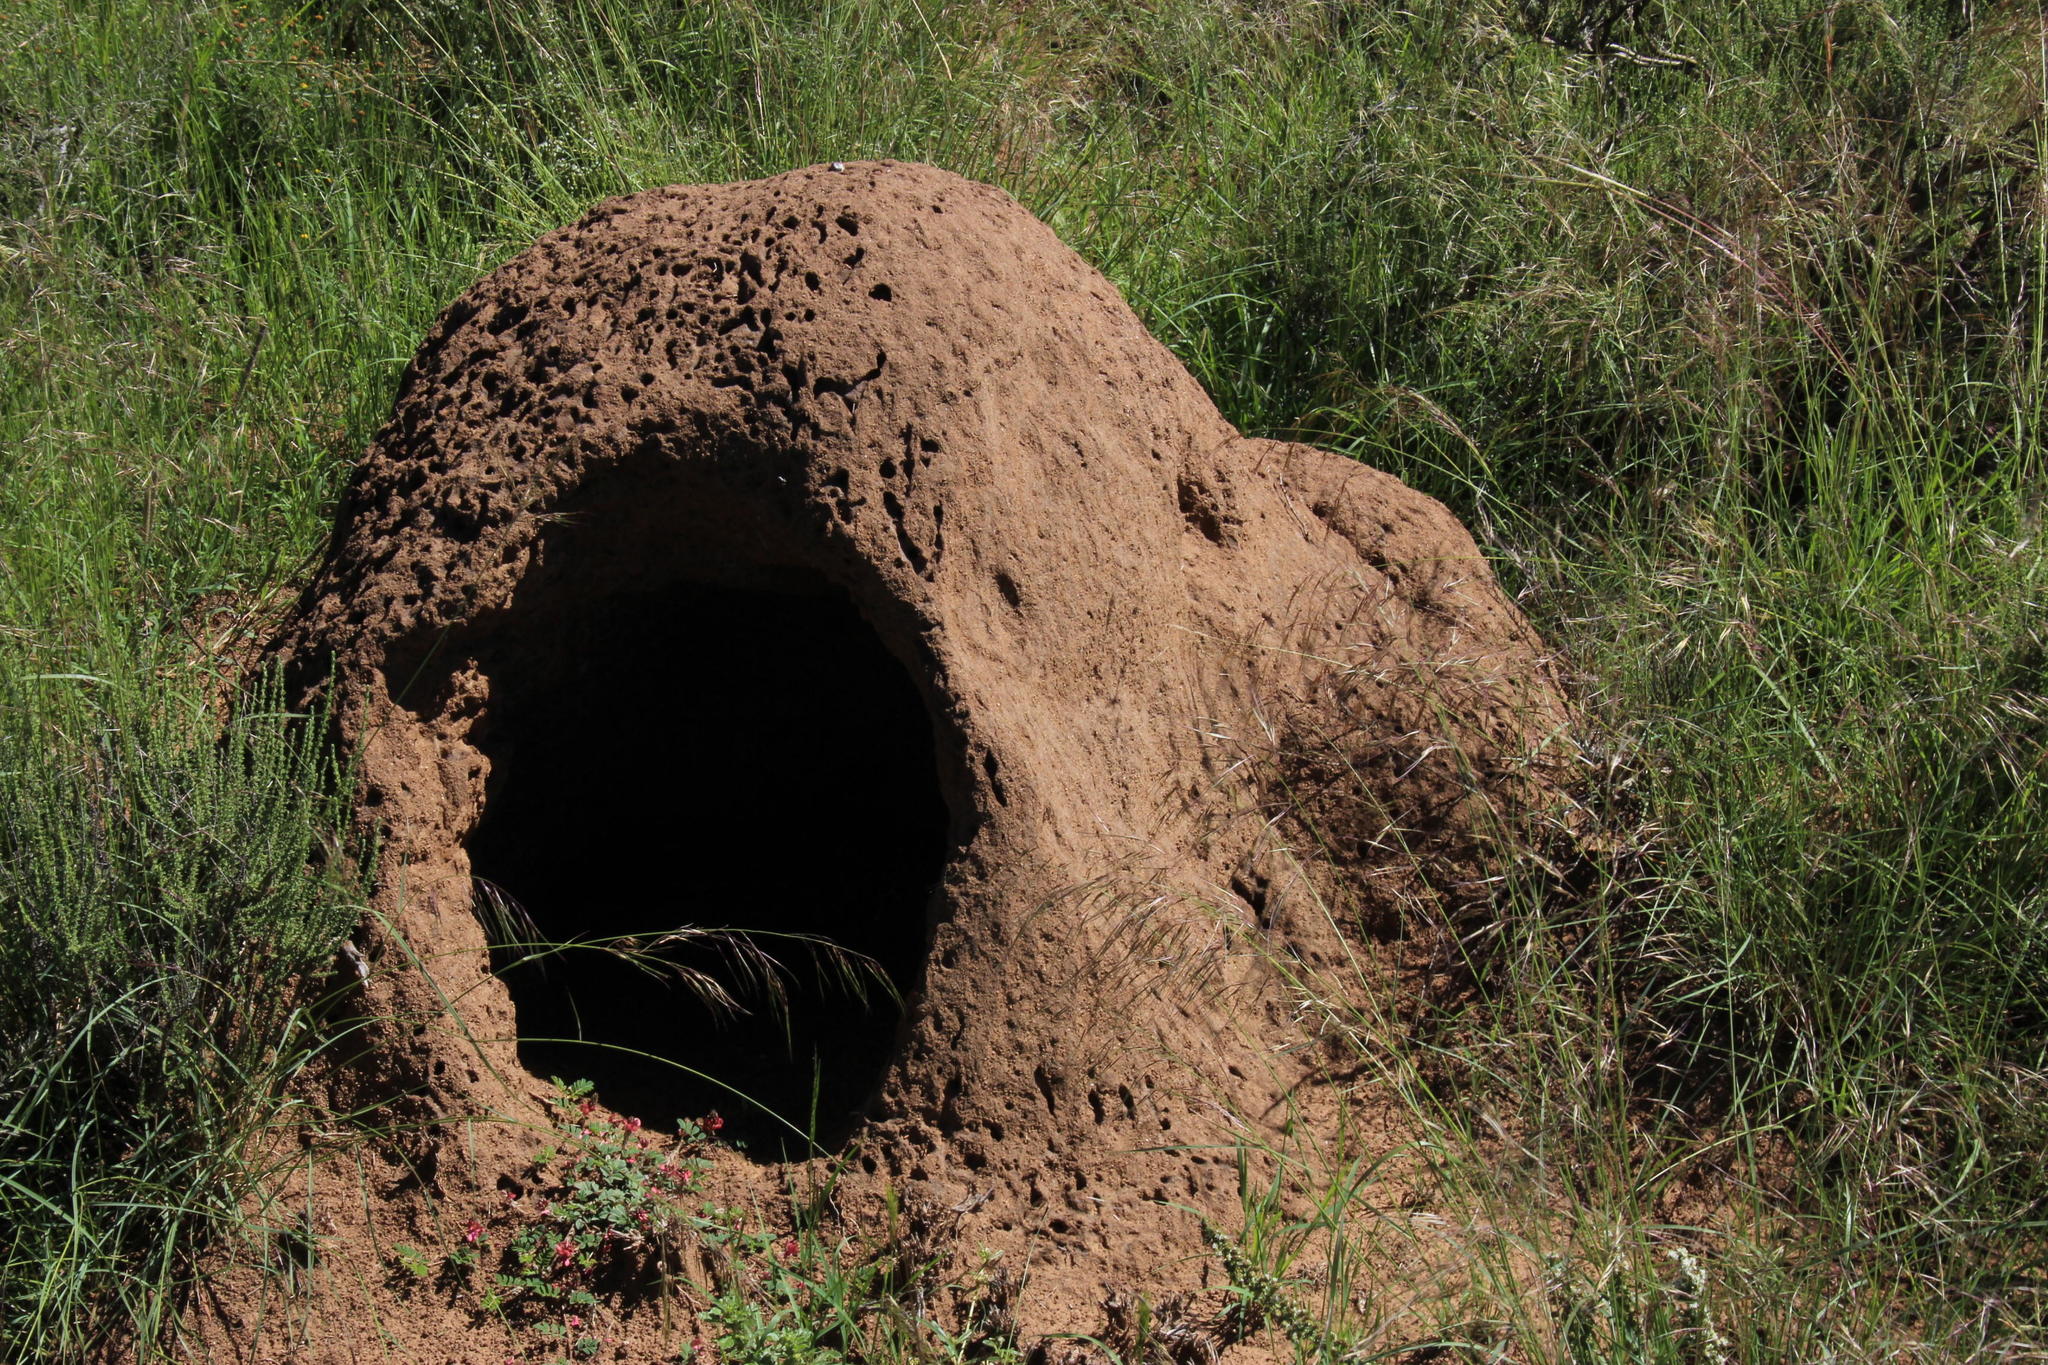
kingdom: Animalia
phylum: Chordata
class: Mammalia
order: Tubulidentata
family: Orycteropodidae
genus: Orycteropus
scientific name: Orycteropus afer
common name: Aardvark
